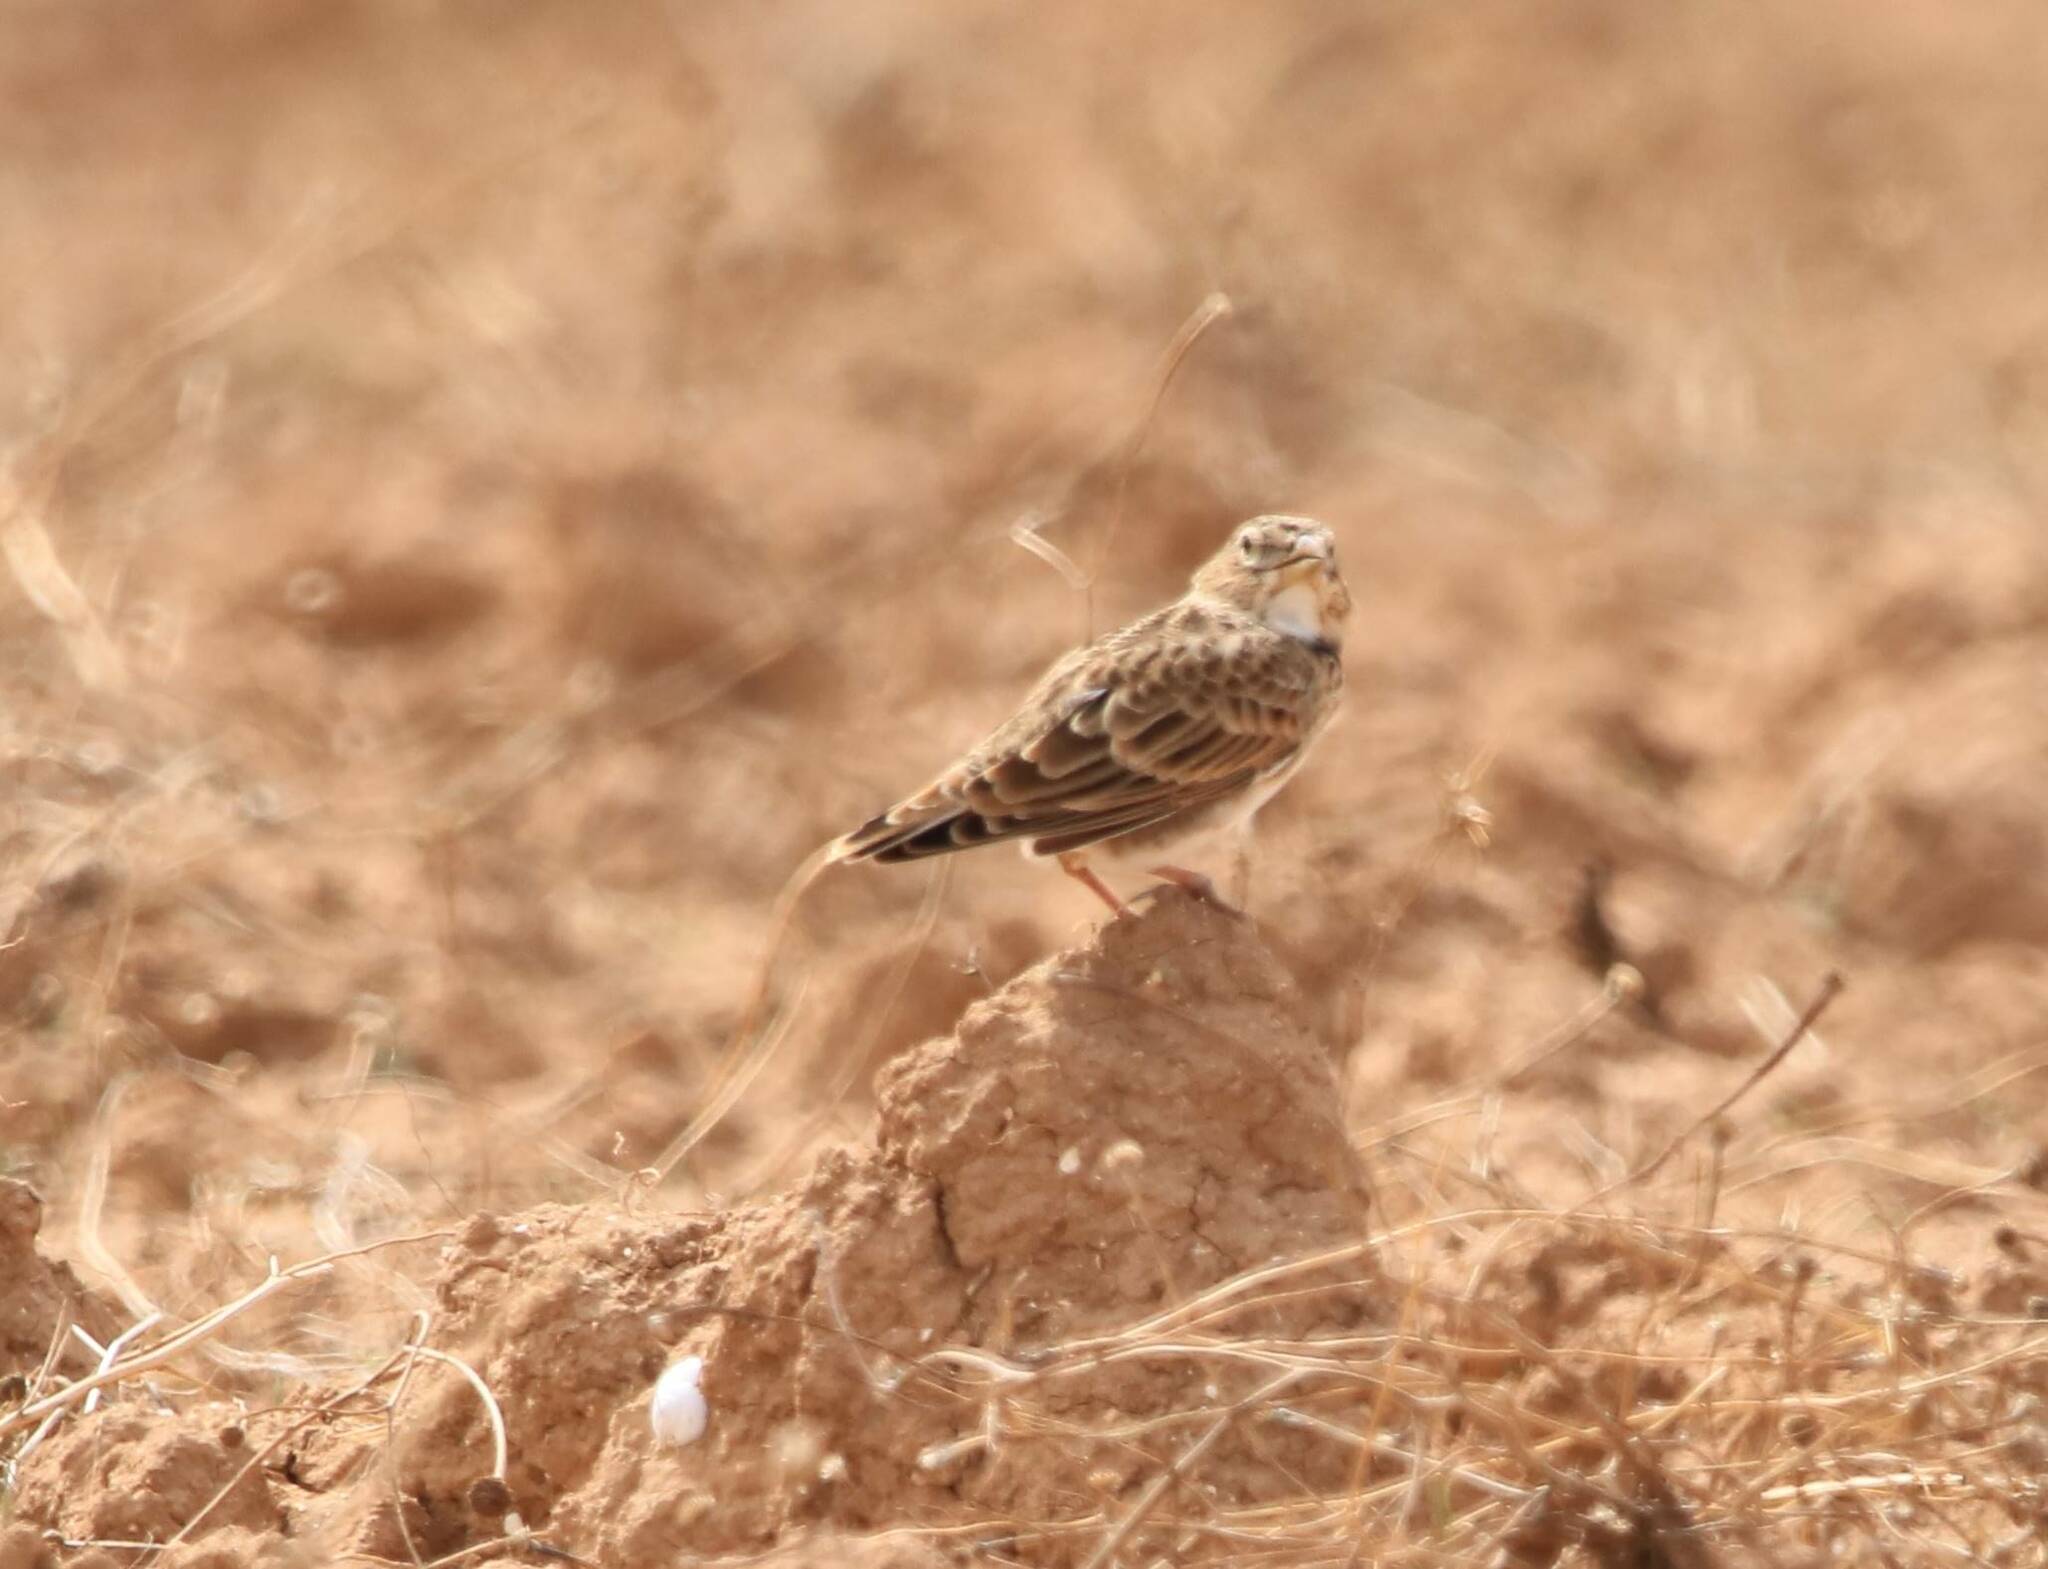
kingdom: Animalia
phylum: Chordata
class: Aves
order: Passeriformes
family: Alaudidae
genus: Melanocorypha
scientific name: Melanocorypha calandra
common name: Calandra lark
